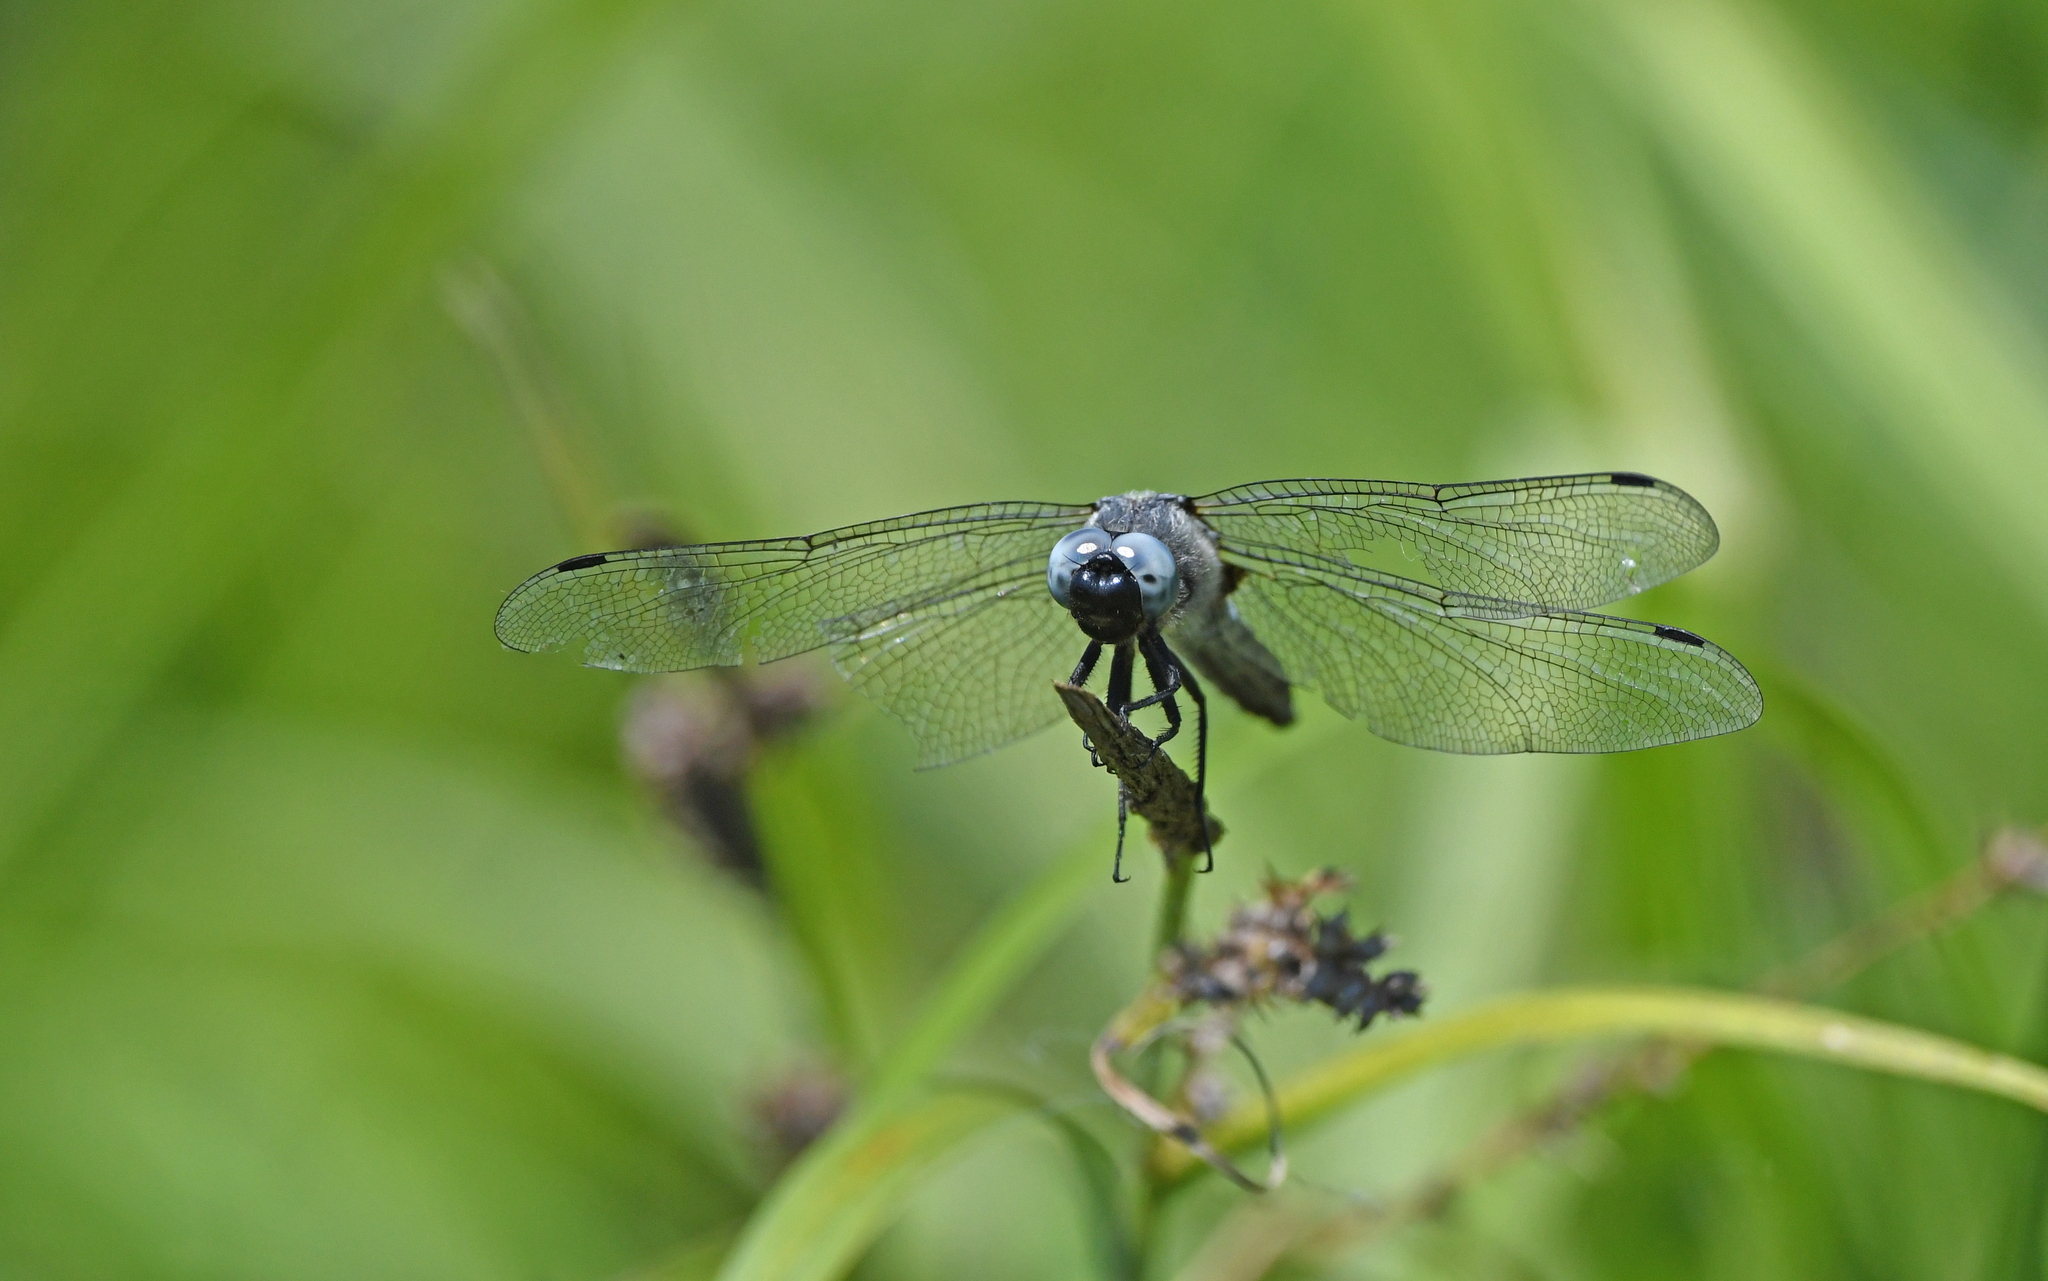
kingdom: Animalia
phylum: Arthropoda
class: Insecta
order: Odonata
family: Libellulidae
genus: Libellula
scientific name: Libellula fulva
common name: Blue chaser
